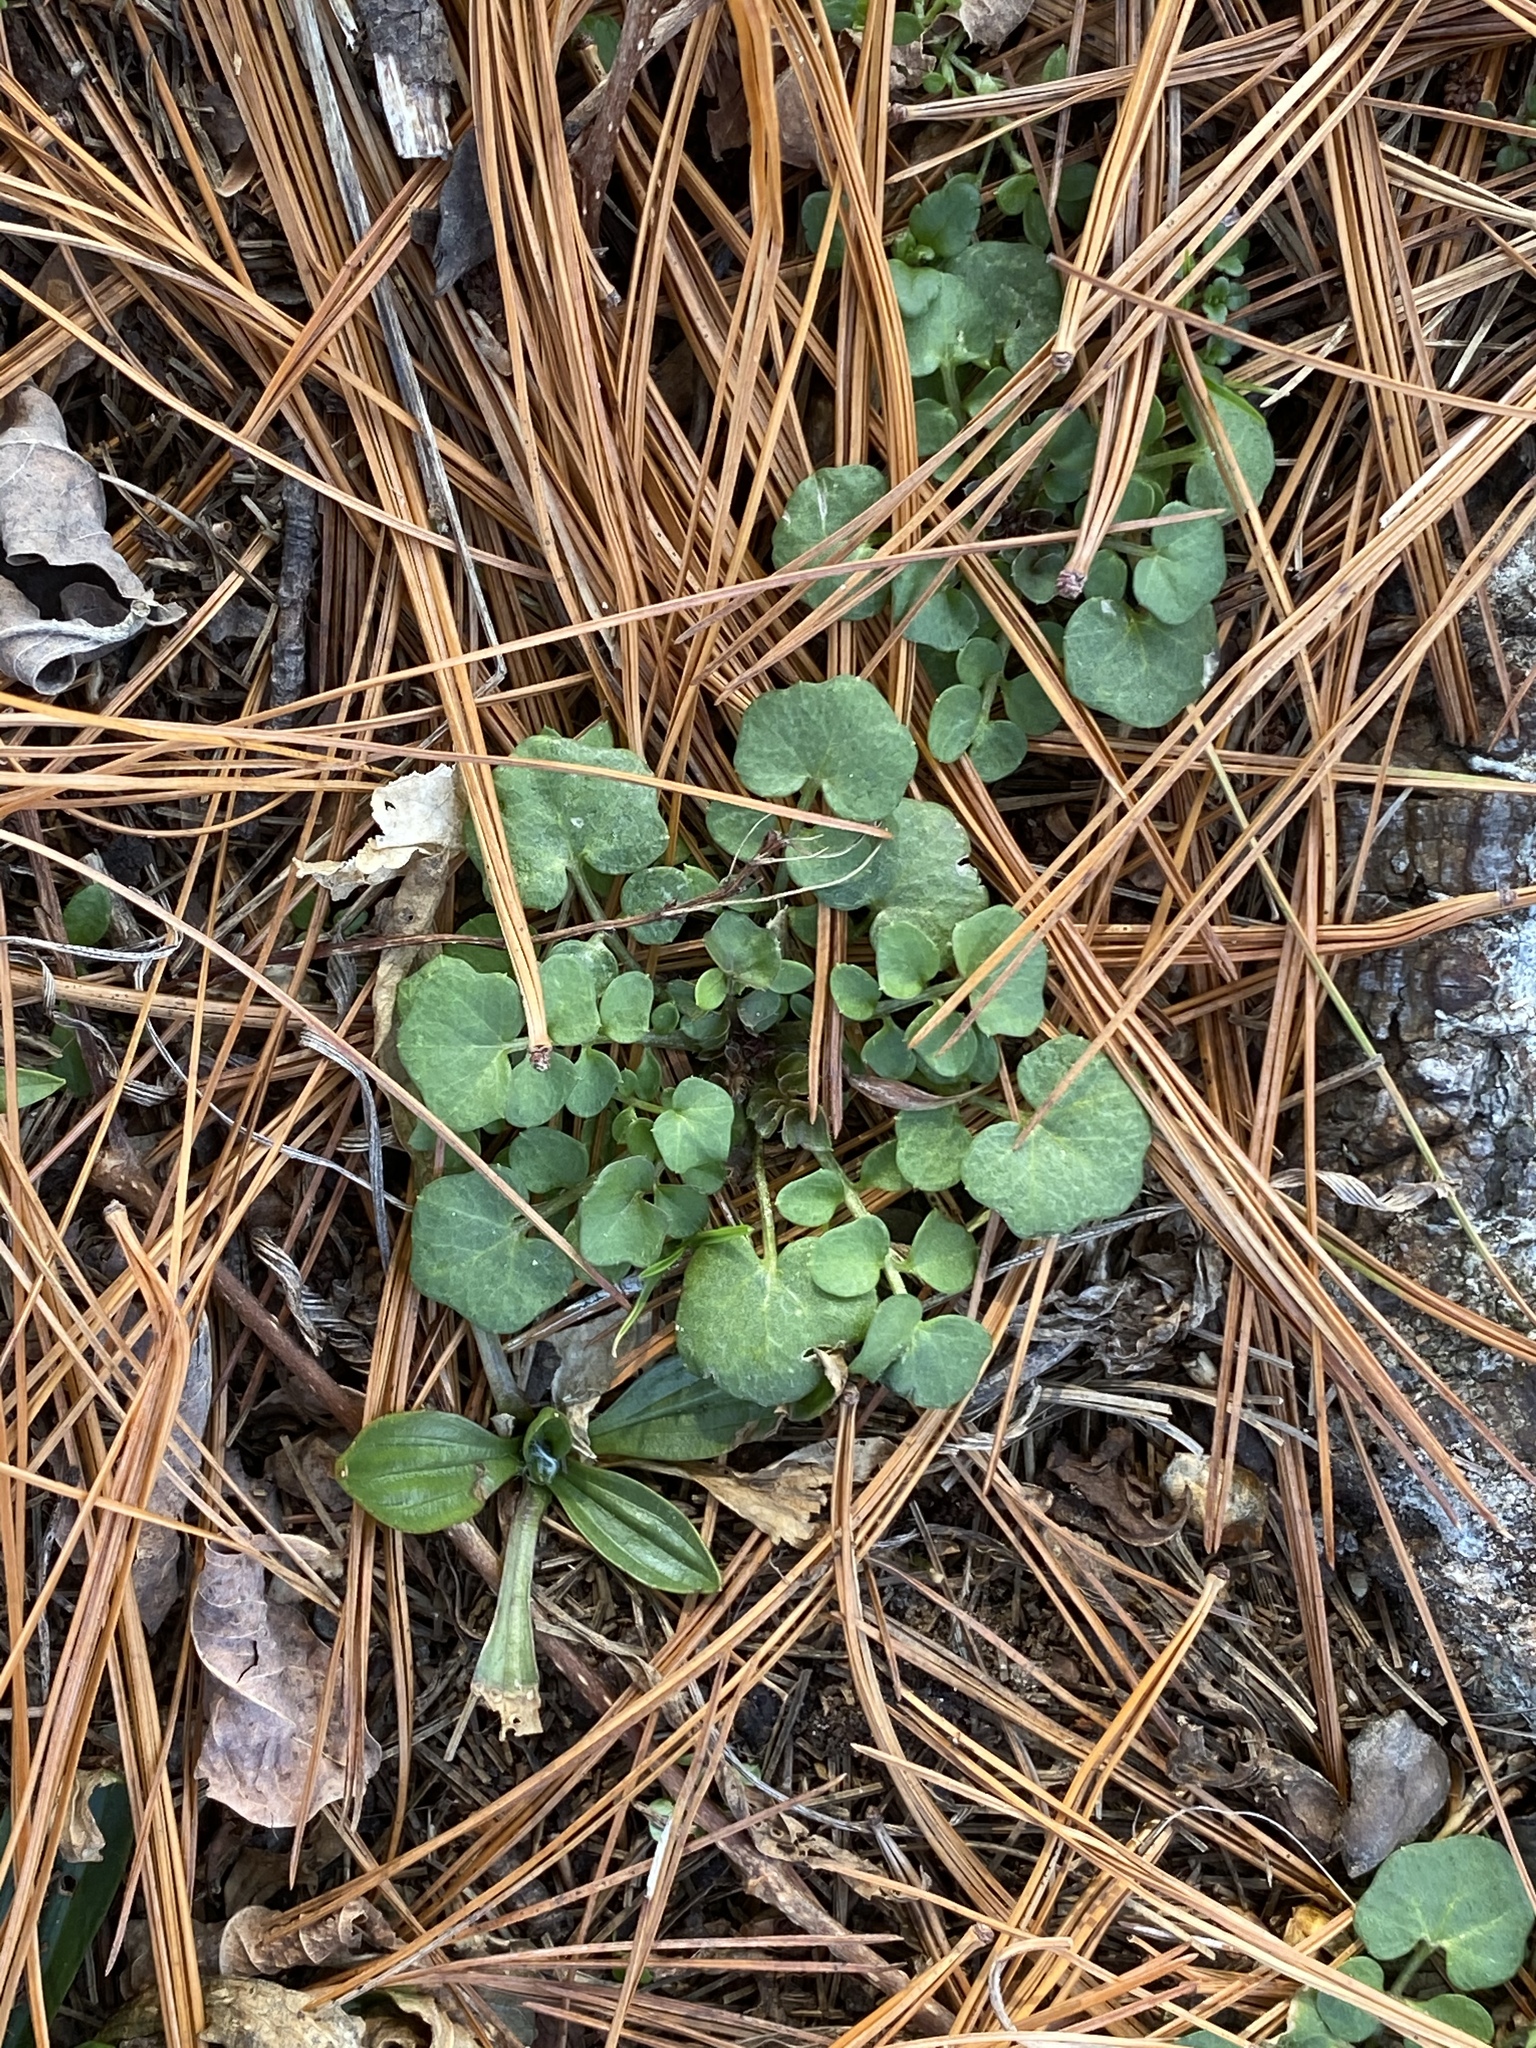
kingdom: Plantae
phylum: Tracheophyta
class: Magnoliopsida
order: Brassicales
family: Brassicaceae
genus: Cardamine
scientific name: Cardamine hirsuta
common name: Hairy bittercress
